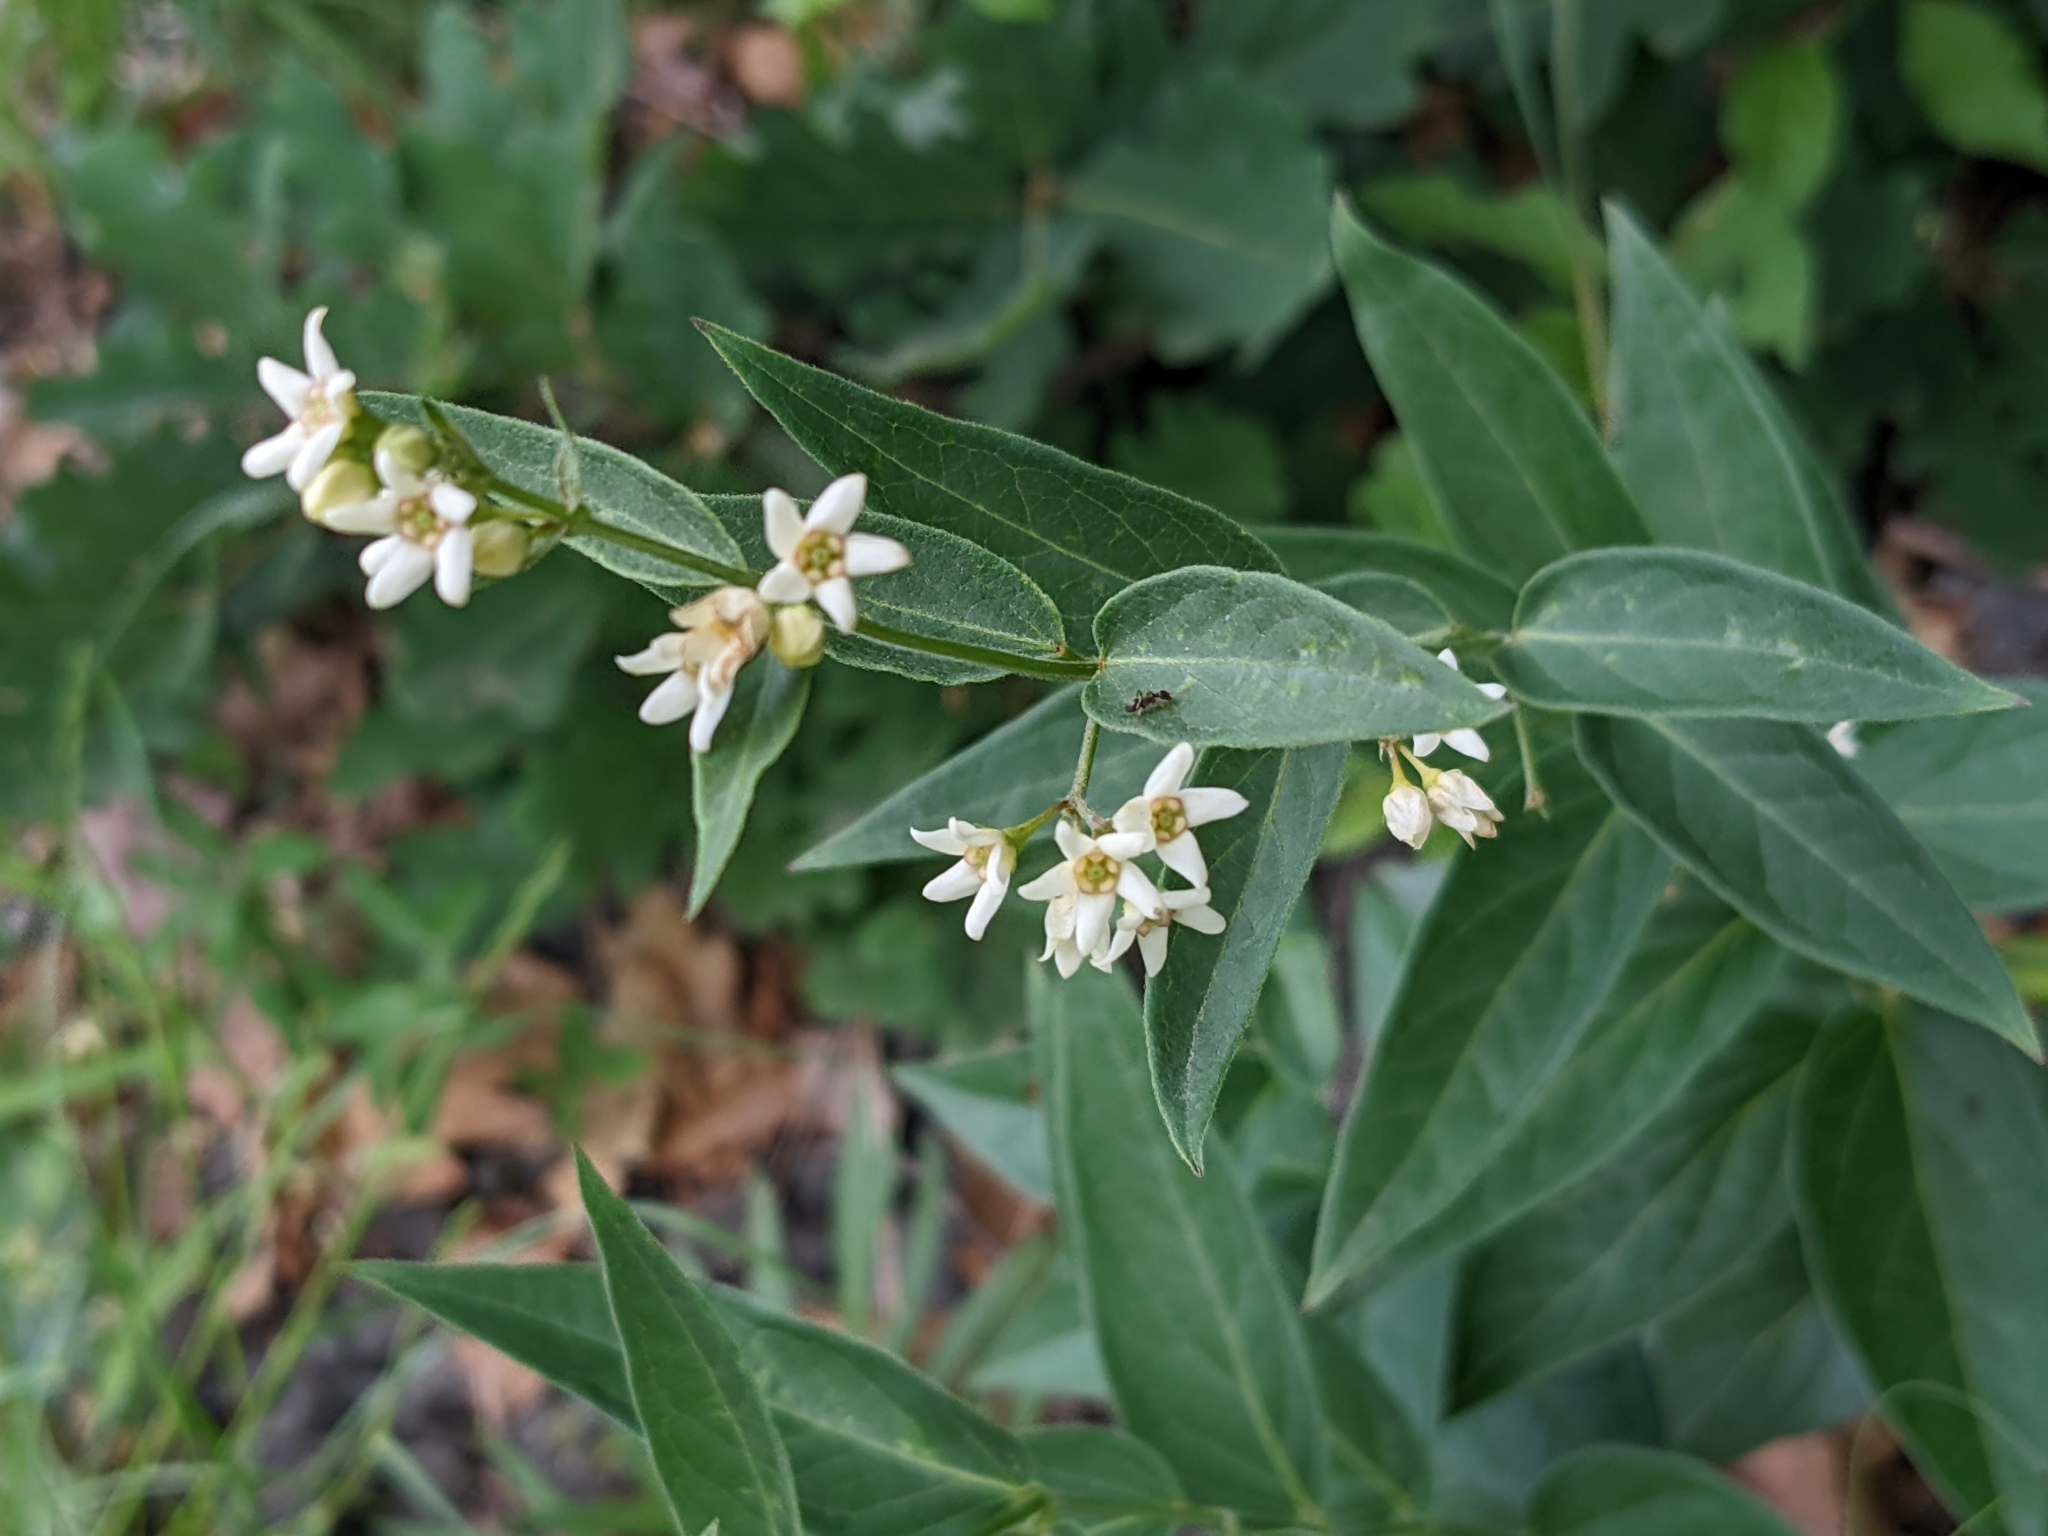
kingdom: Plantae
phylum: Tracheophyta
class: Magnoliopsida
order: Gentianales
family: Apocynaceae
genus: Vincetoxicum
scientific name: Vincetoxicum hirundinaria
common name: White swallowwort
